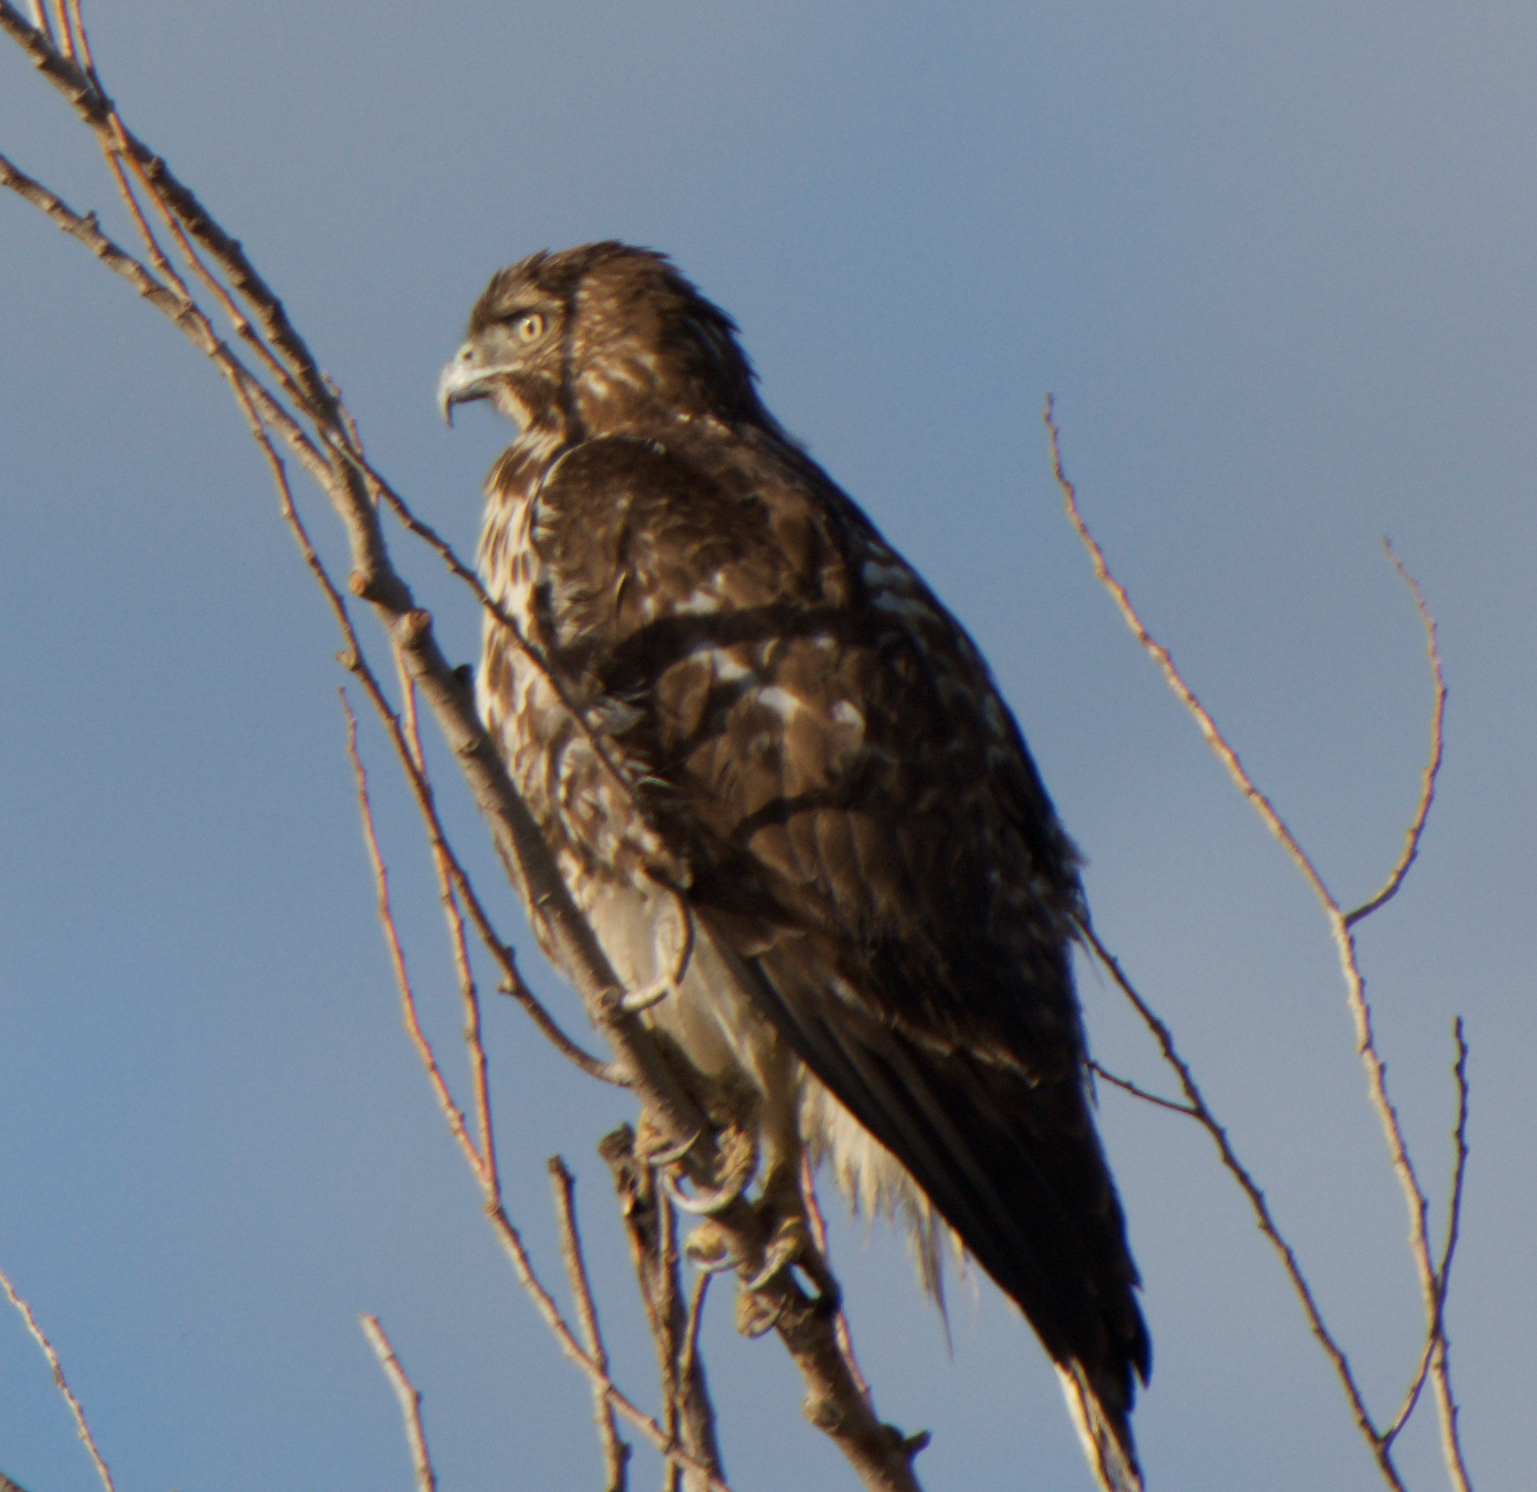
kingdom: Animalia
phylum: Chordata
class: Aves
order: Accipitriformes
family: Accipitridae
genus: Buteo
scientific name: Buteo jamaicensis
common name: Red-tailed hawk
